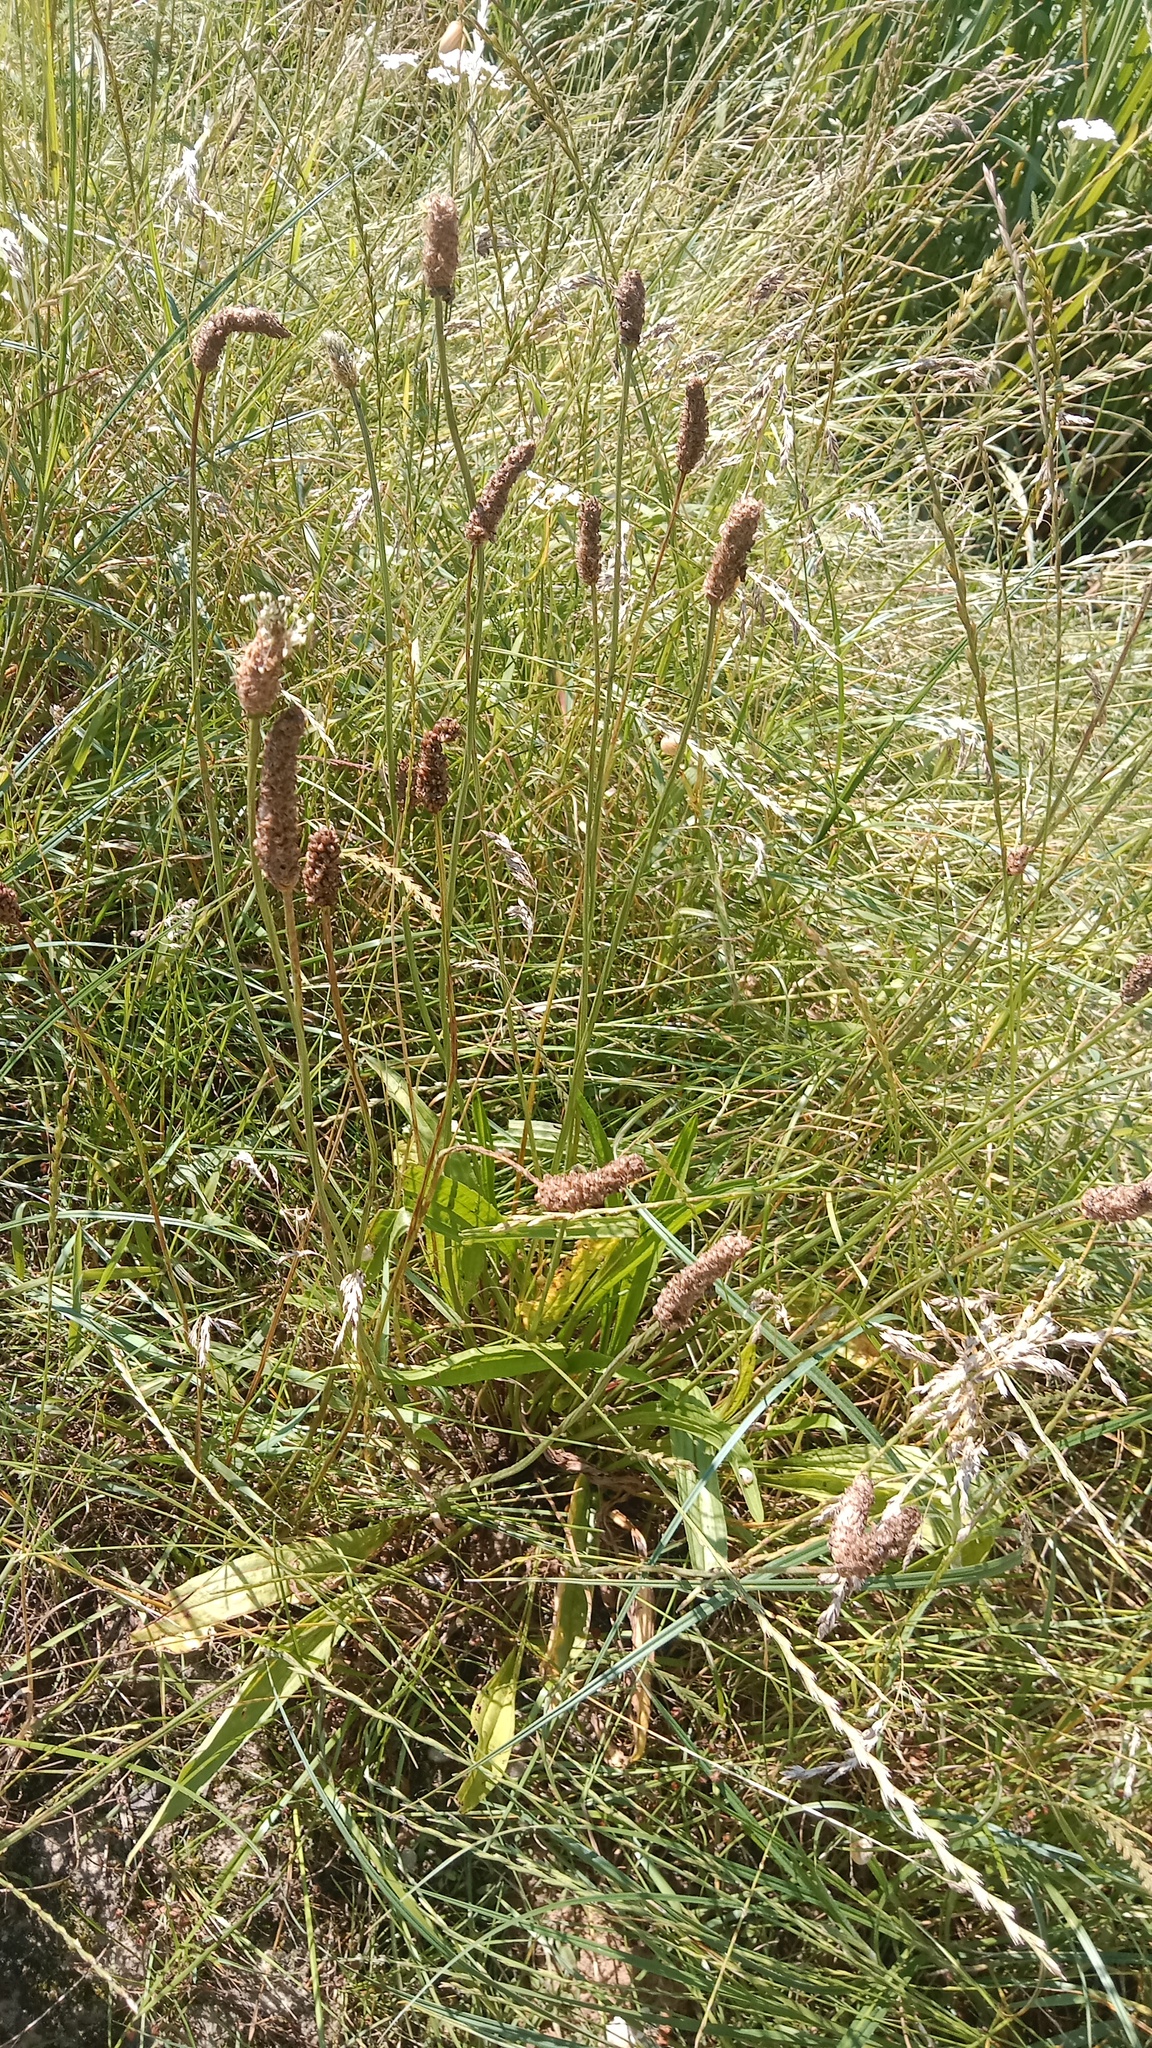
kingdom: Plantae
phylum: Tracheophyta
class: Magnoliopsida
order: Lamiales
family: Plantaginaceae
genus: Plantago
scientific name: Plantago lanceolata
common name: Ribwort plantain
